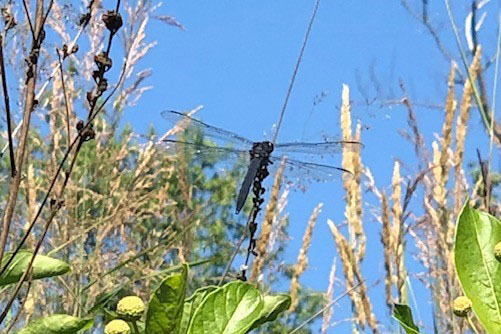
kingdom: Animalia
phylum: Arthropoda
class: Insecta
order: Odonata
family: Libellulidae
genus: Libellula
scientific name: Libellula incesta
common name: Slaty skimmer
